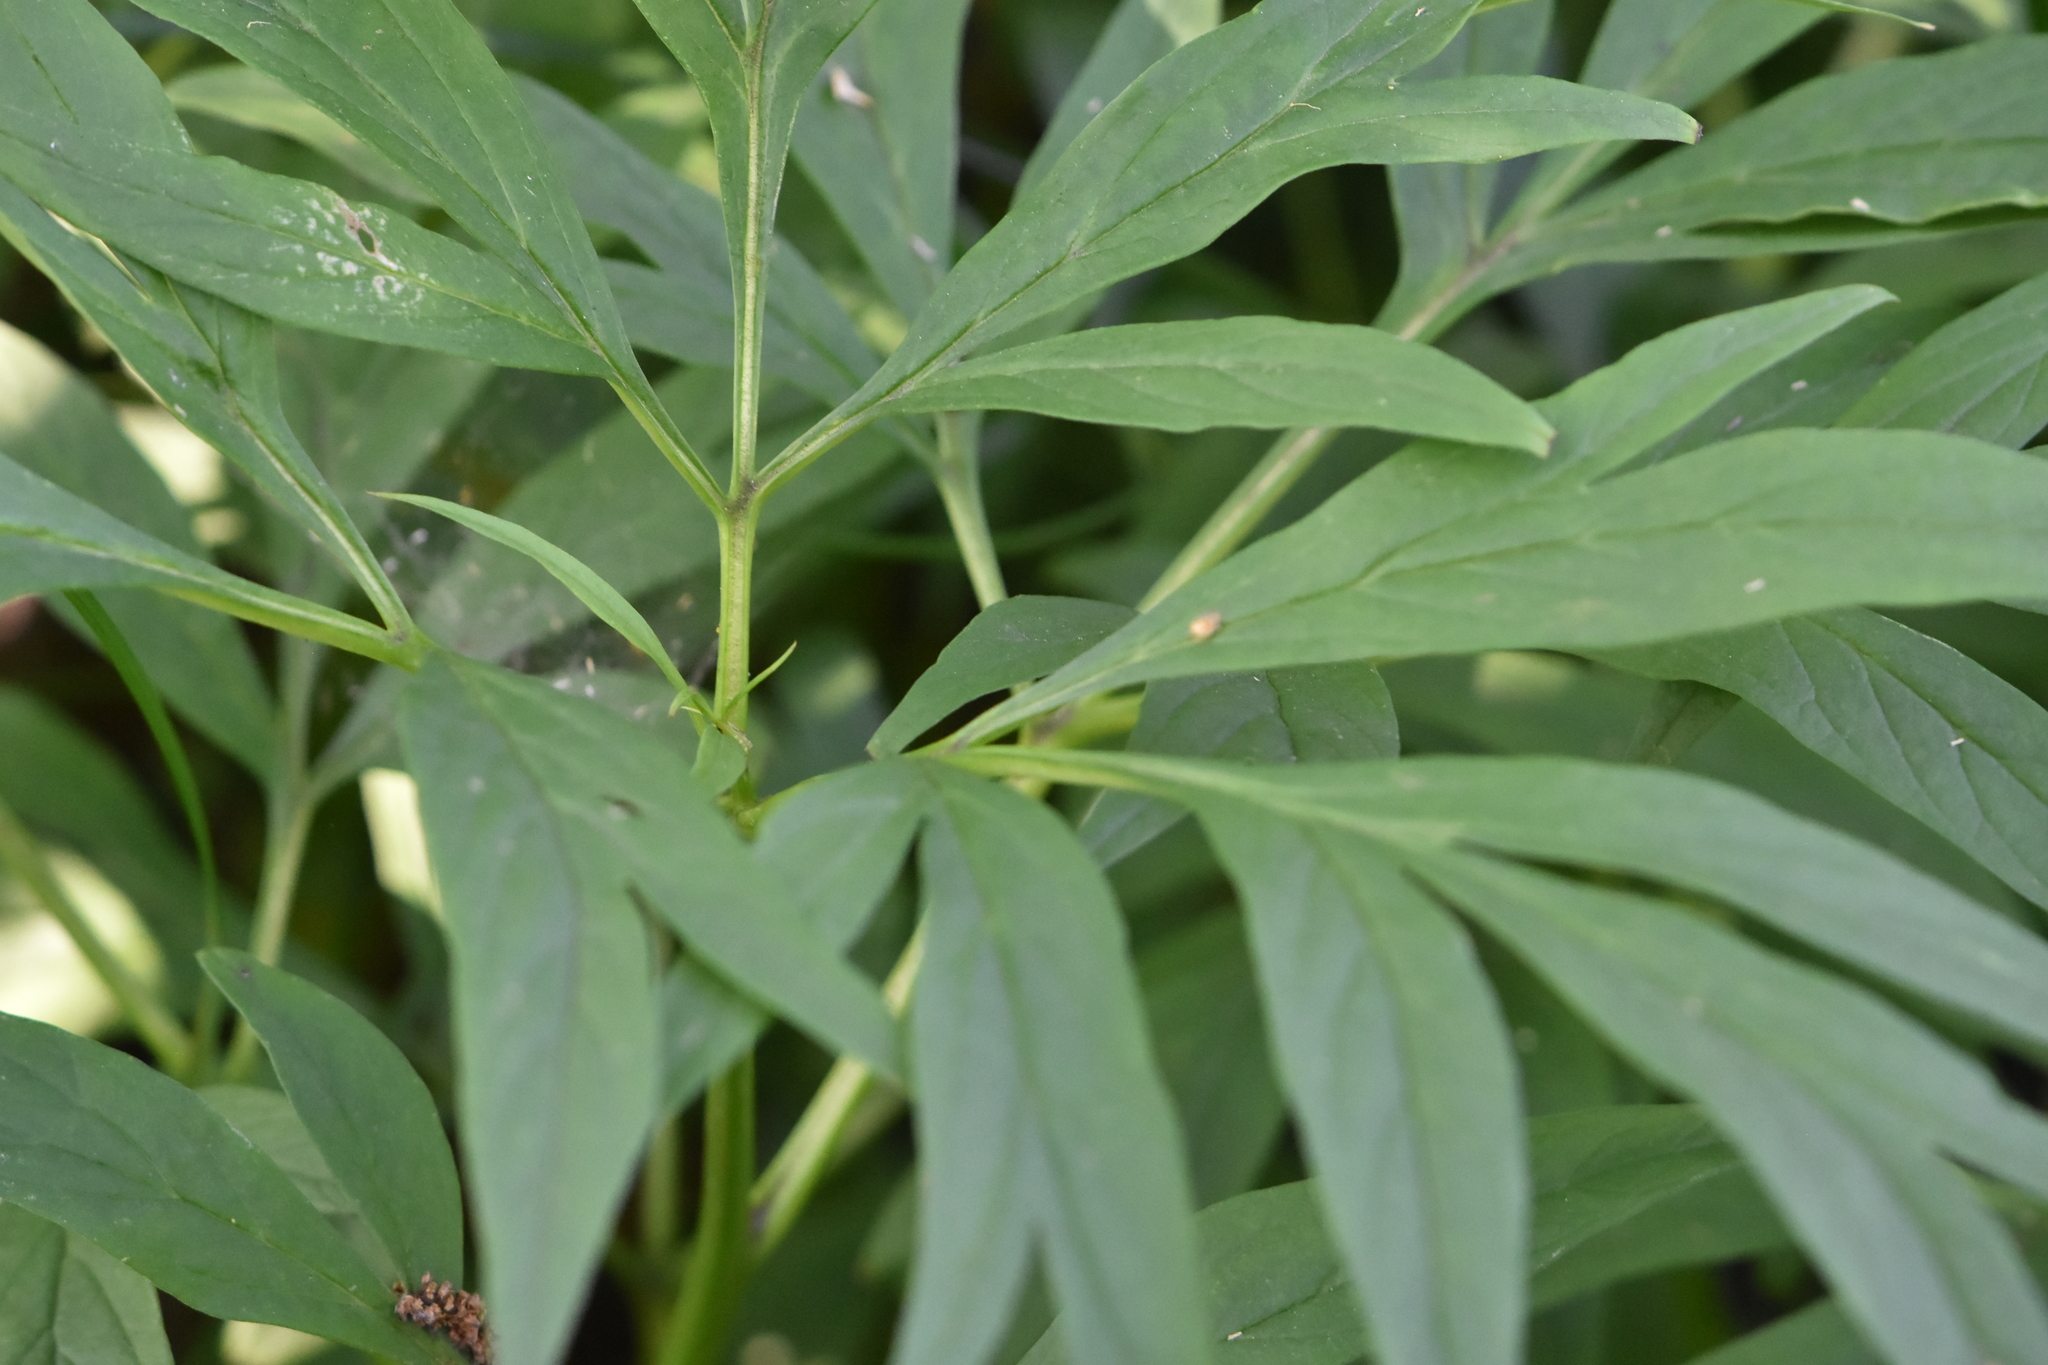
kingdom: Plantae
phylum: Tracheophyta
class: Magnoliopsida
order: Saxifragales
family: Paeoniaceae
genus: Paeonia
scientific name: Paeonia anomala
